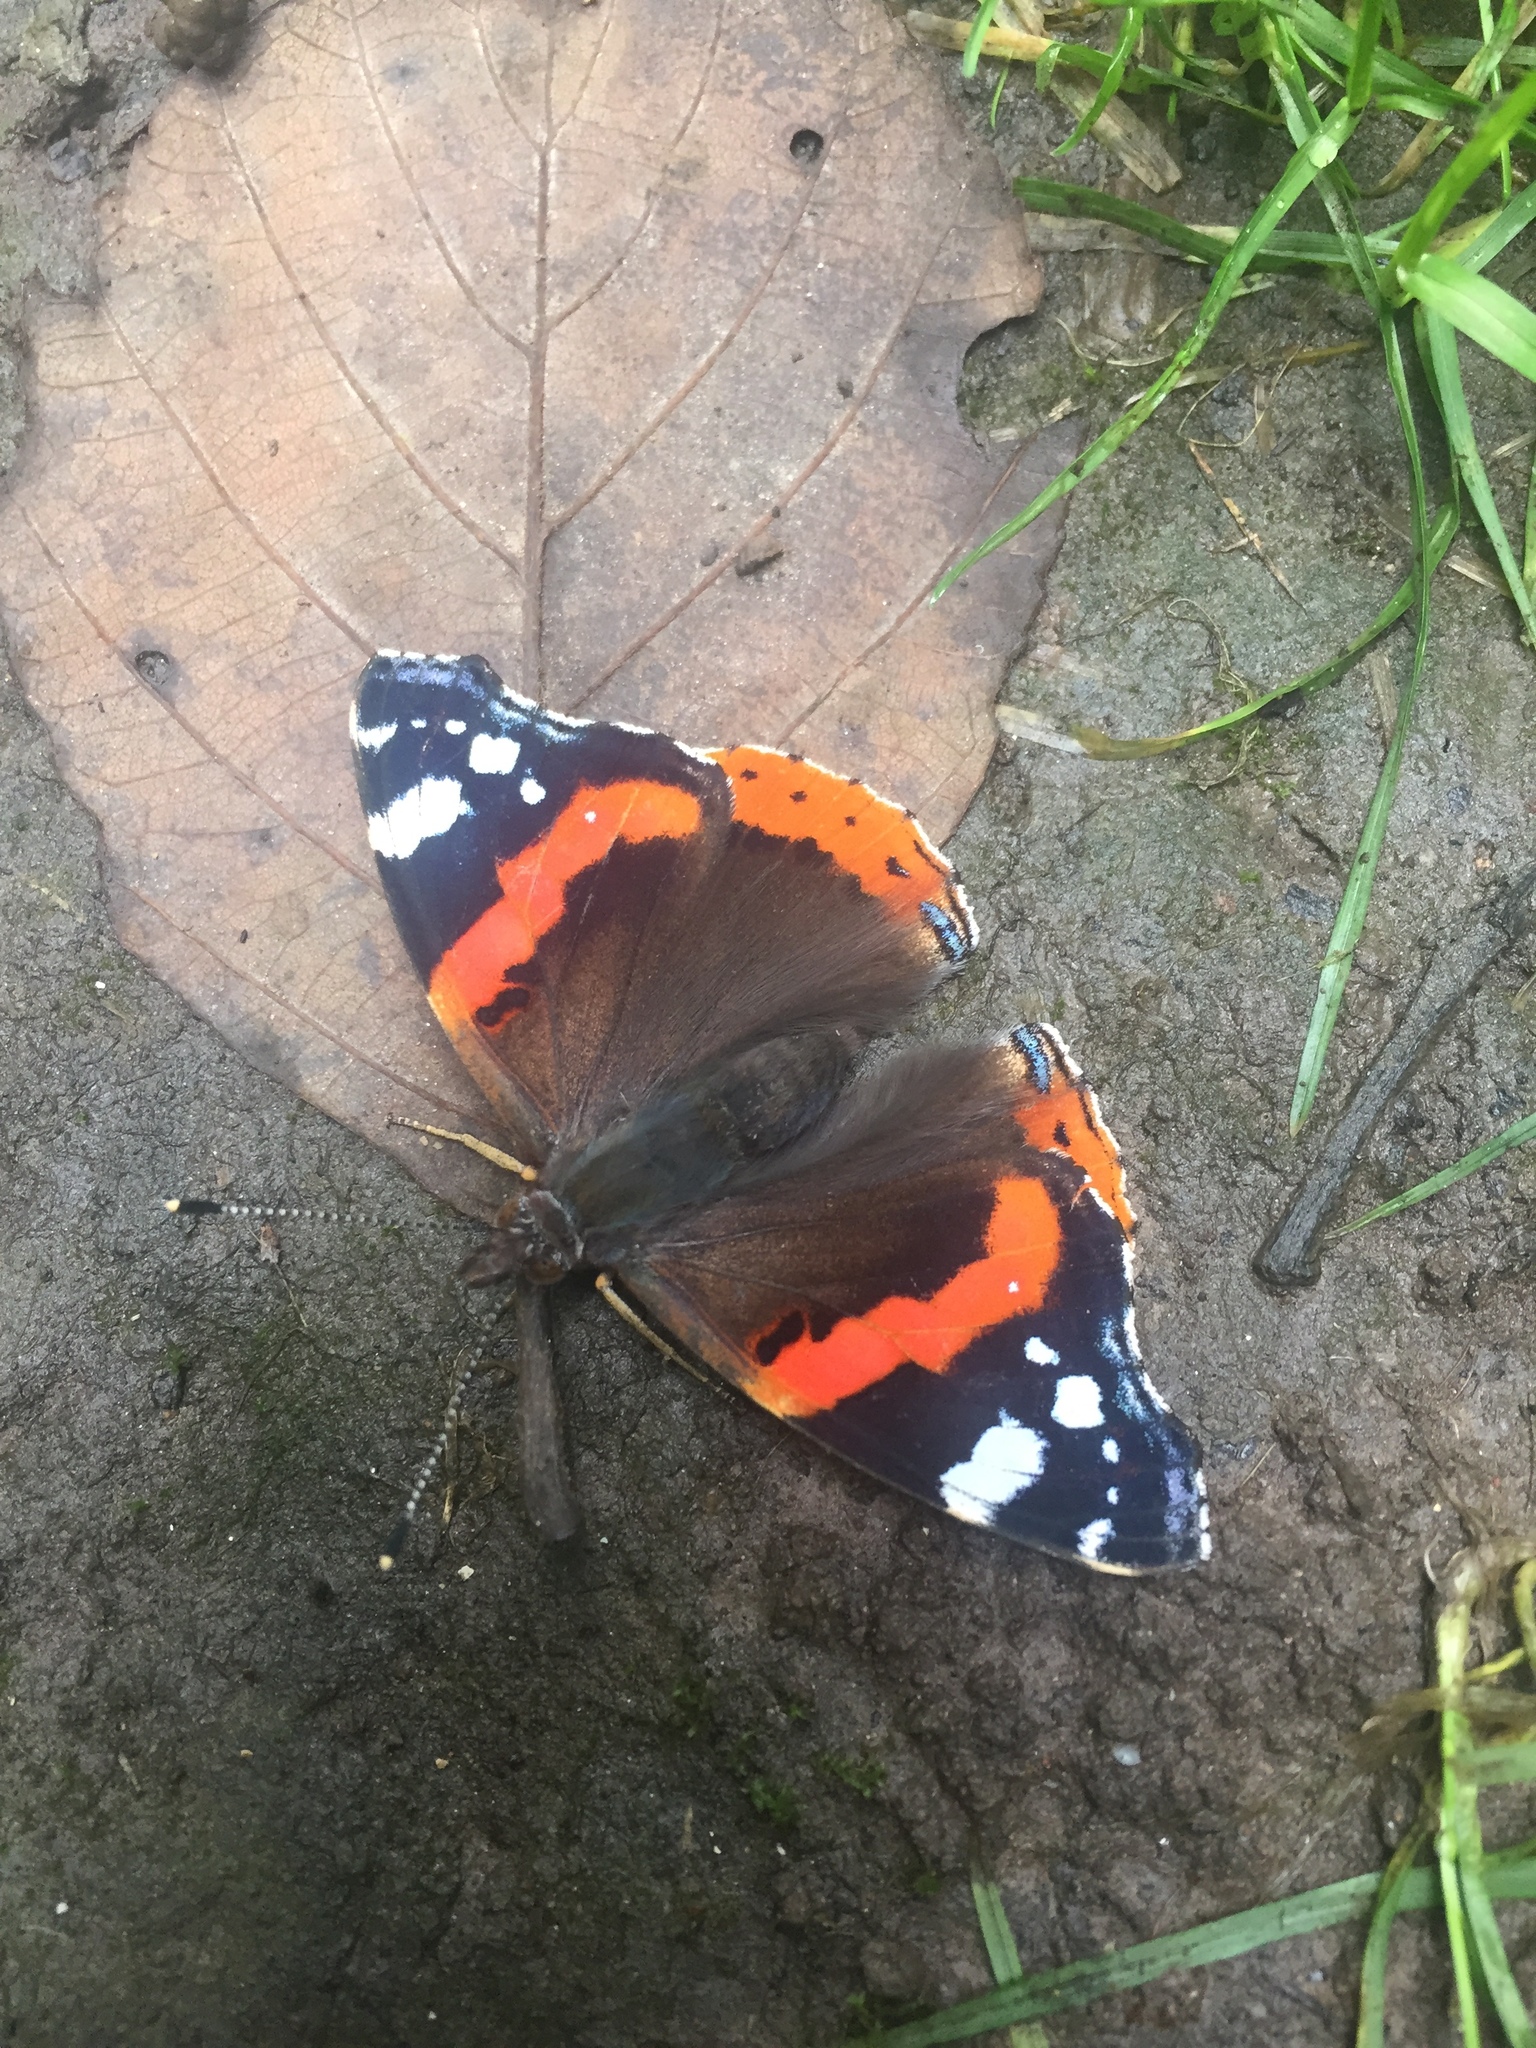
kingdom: Animalia
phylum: Arthropoda
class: Insecta
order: Lepidoptera
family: Nymphalidae
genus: Vanessa
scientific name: Vanessa atalanta
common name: Red admiral
